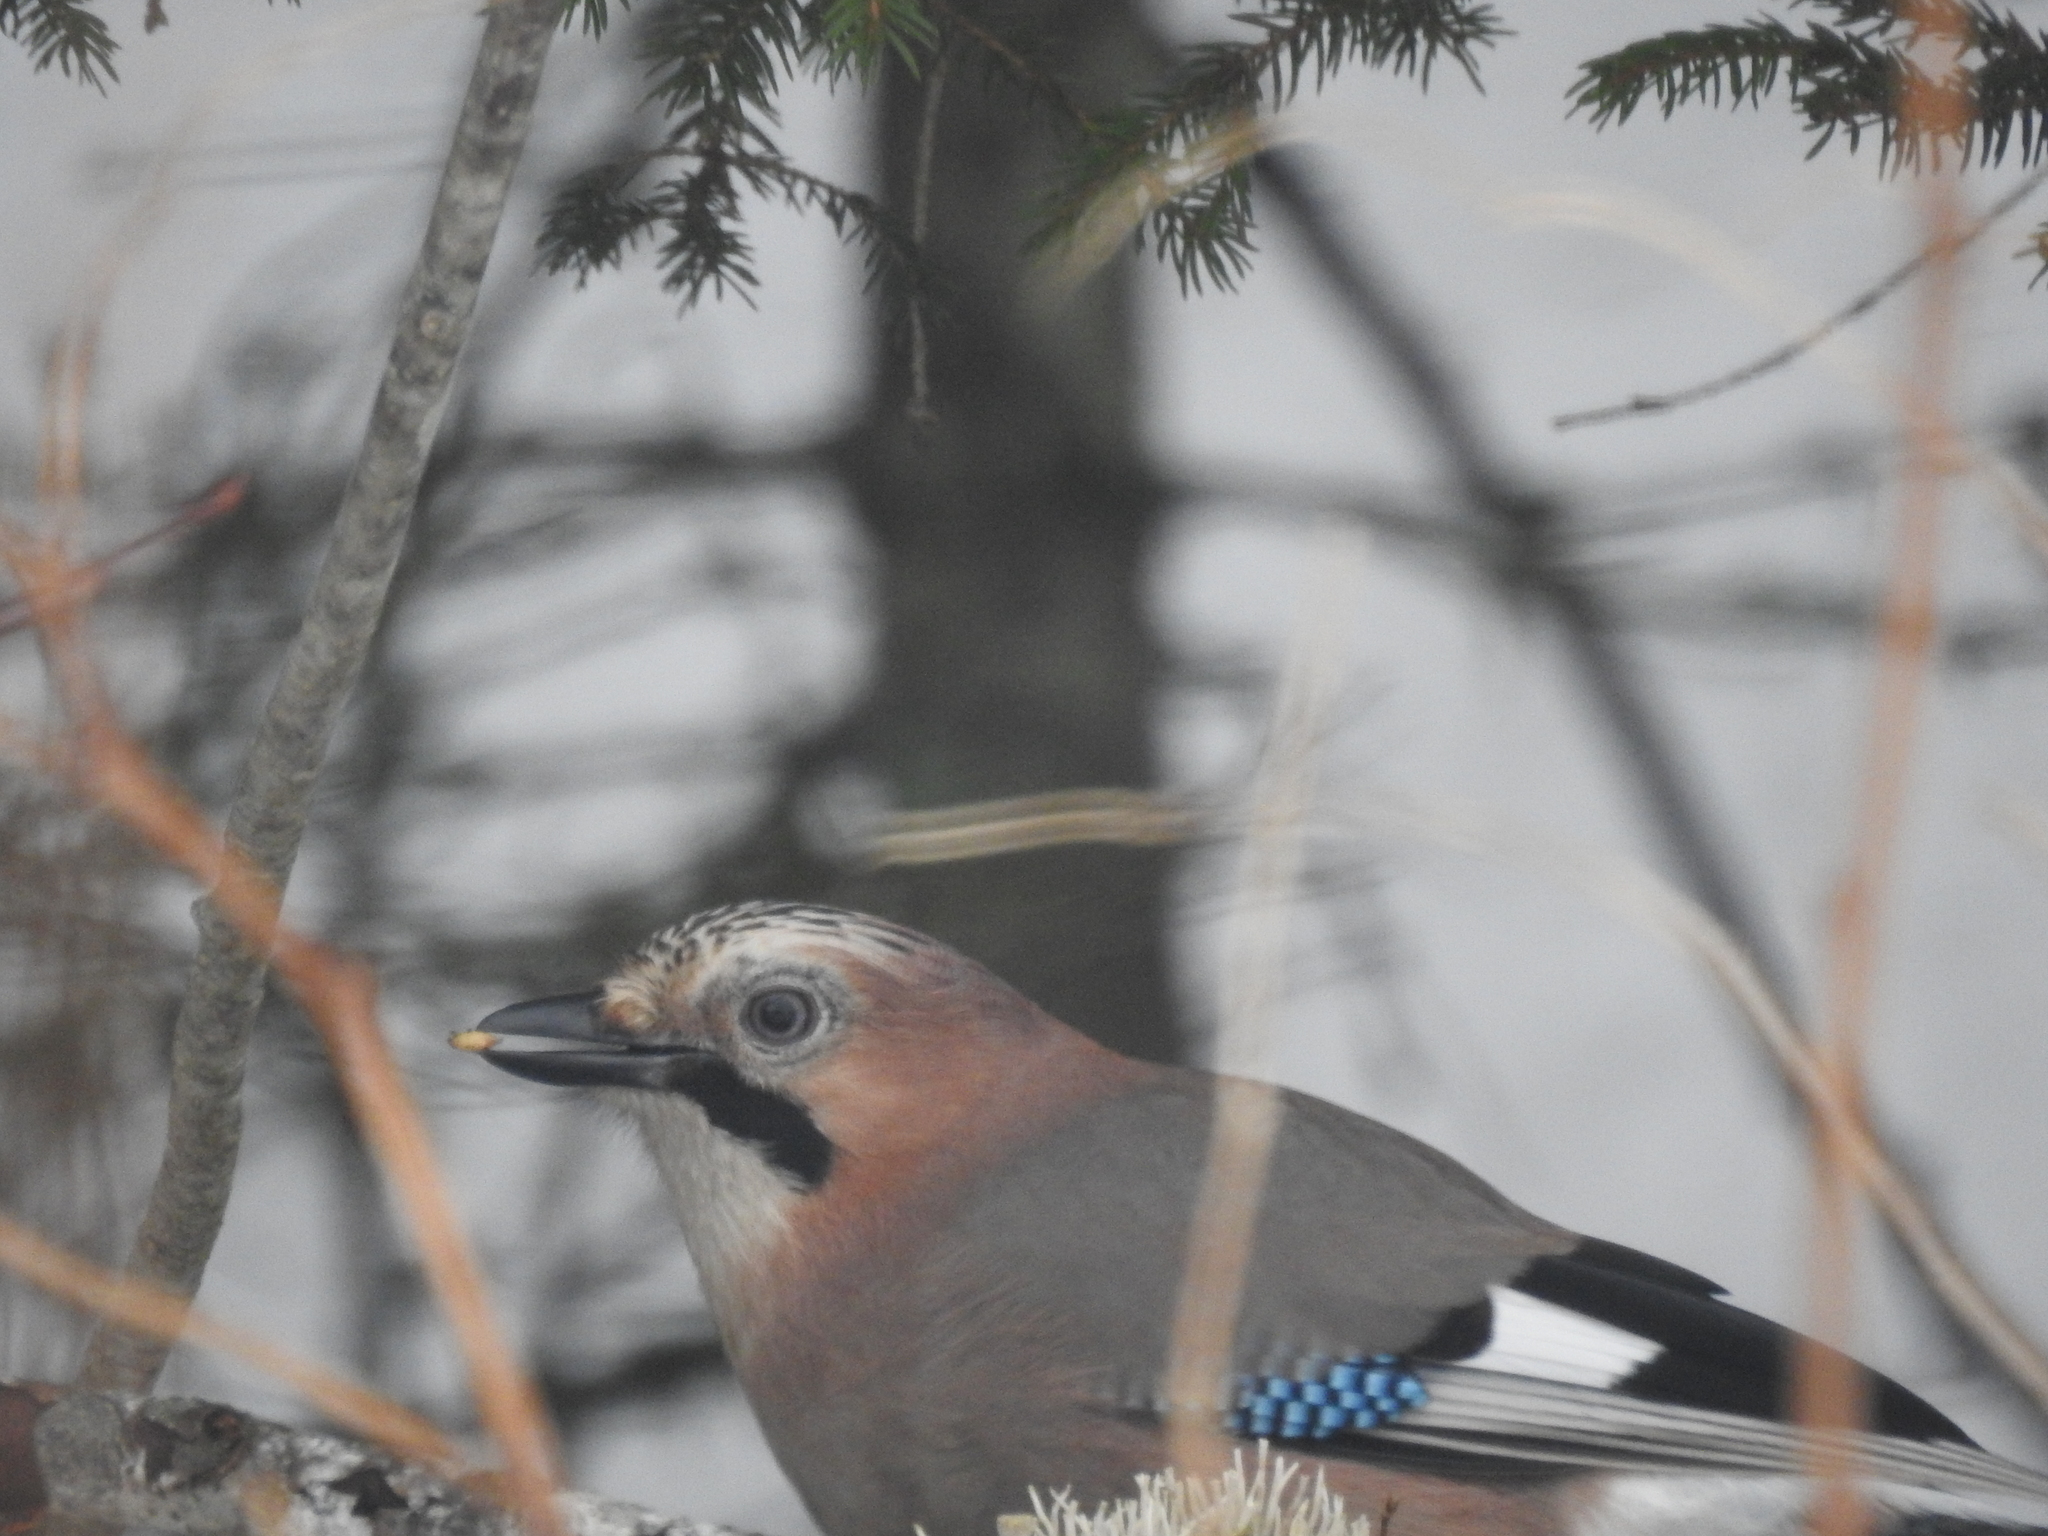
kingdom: Animalia
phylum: Chordata
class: Aves
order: Passeriformes
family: Corvidae
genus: Garrulus
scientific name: Garrulus glandarius
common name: Eurasian jay
